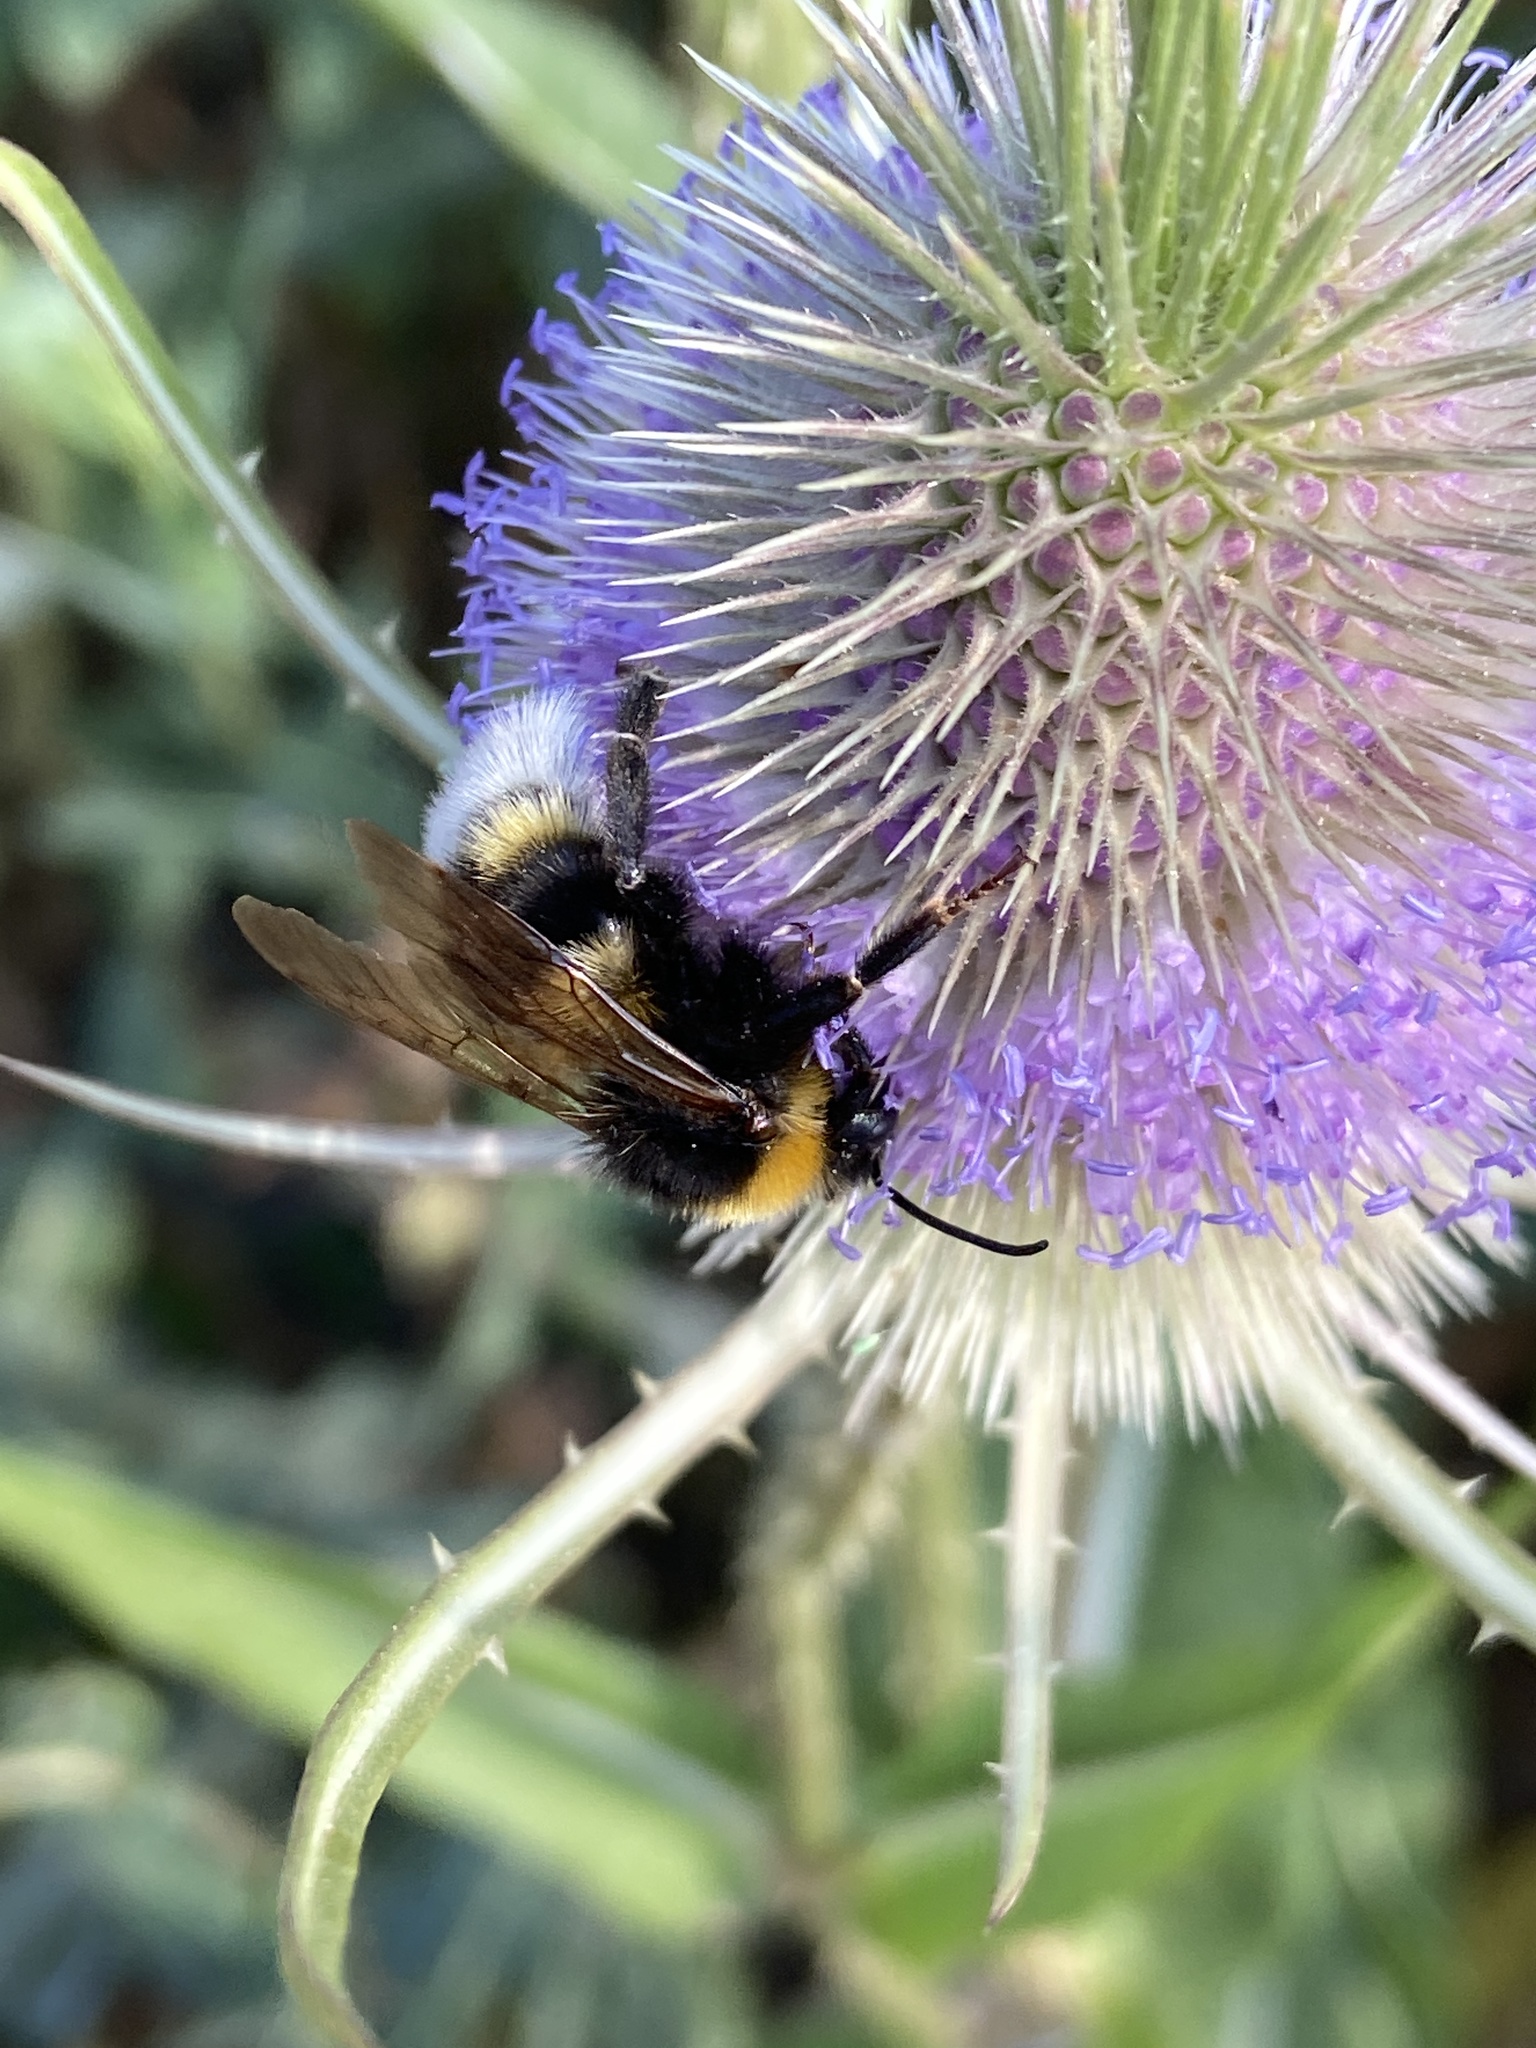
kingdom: Animalia
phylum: Arthropoda
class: Insecta
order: Hymenoptera
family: Apidae
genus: Bombus
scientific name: Bombus vestalis
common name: Vestal cuckoo bee
